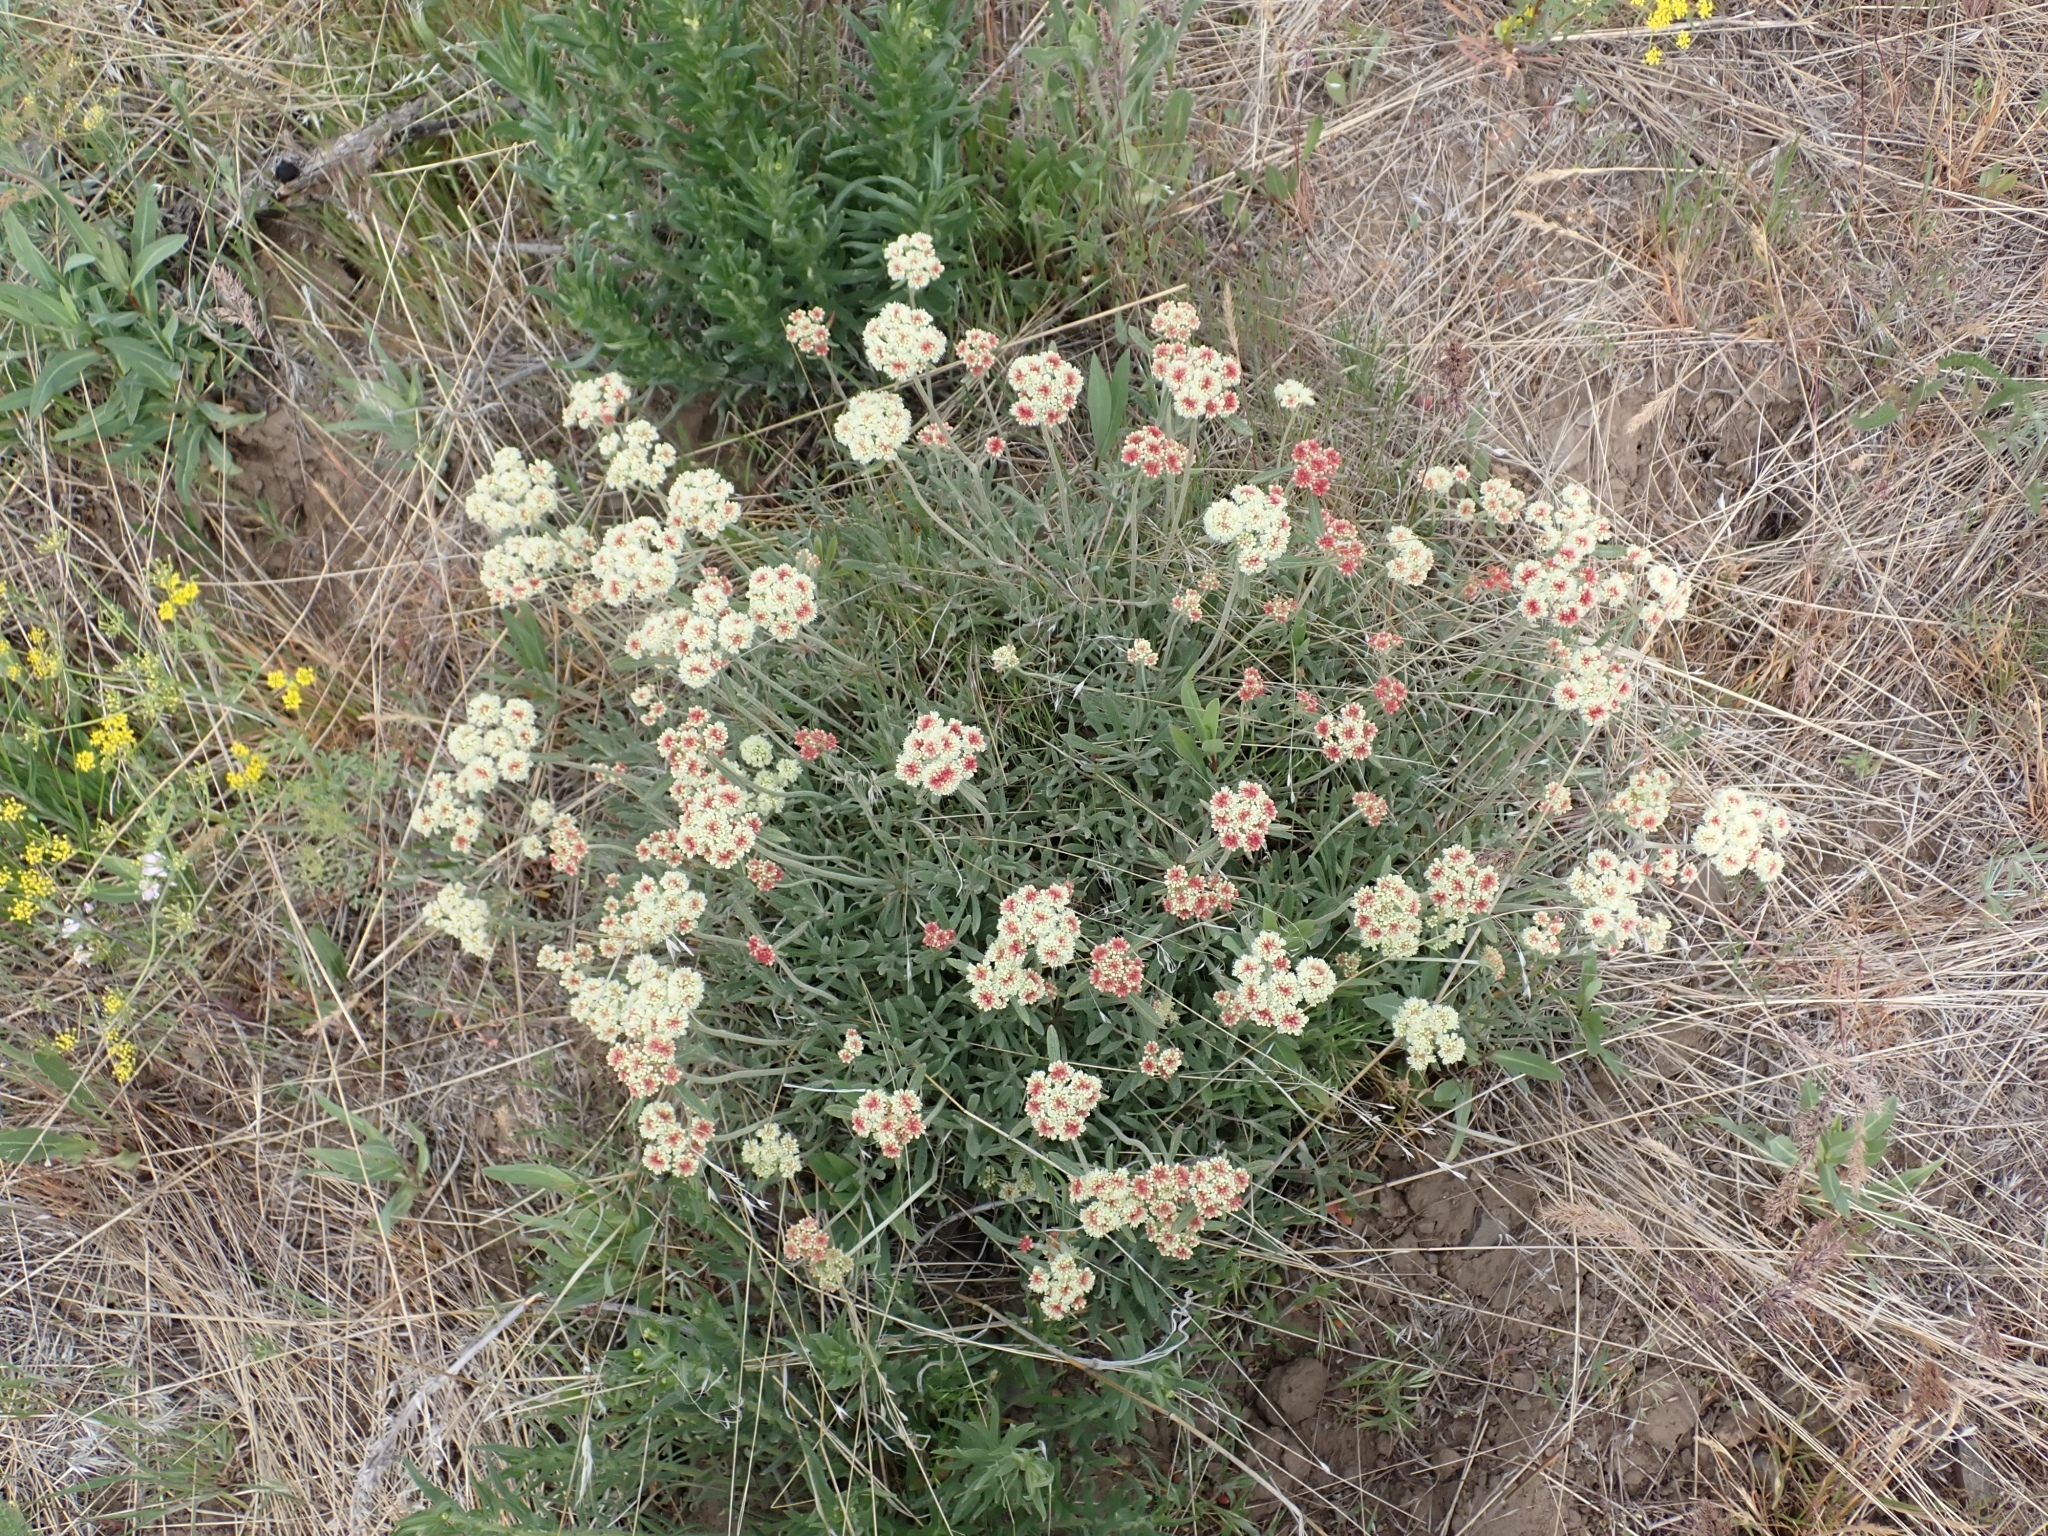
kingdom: Plantae
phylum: Tracheophyta
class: Magnoliopsida
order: Caryophyllales
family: Polygonaceae
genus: Eriogonum
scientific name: Eriogonum heracleoides
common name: Wyeth's buckwheat
